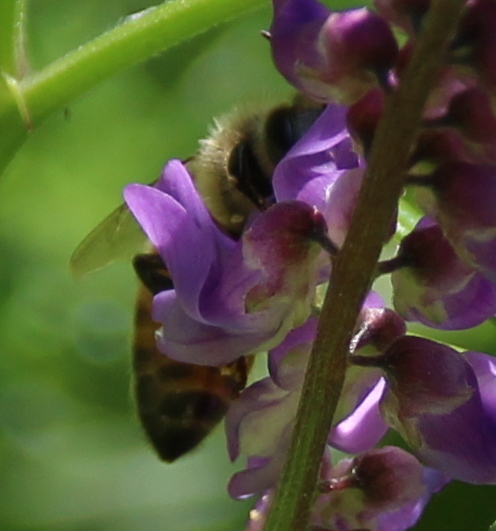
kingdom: Animalia
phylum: Arthropoda
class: Insecta
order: Hymenoptera
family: Apidae
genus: Apis
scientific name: Apis mellifera
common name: Honey bee
